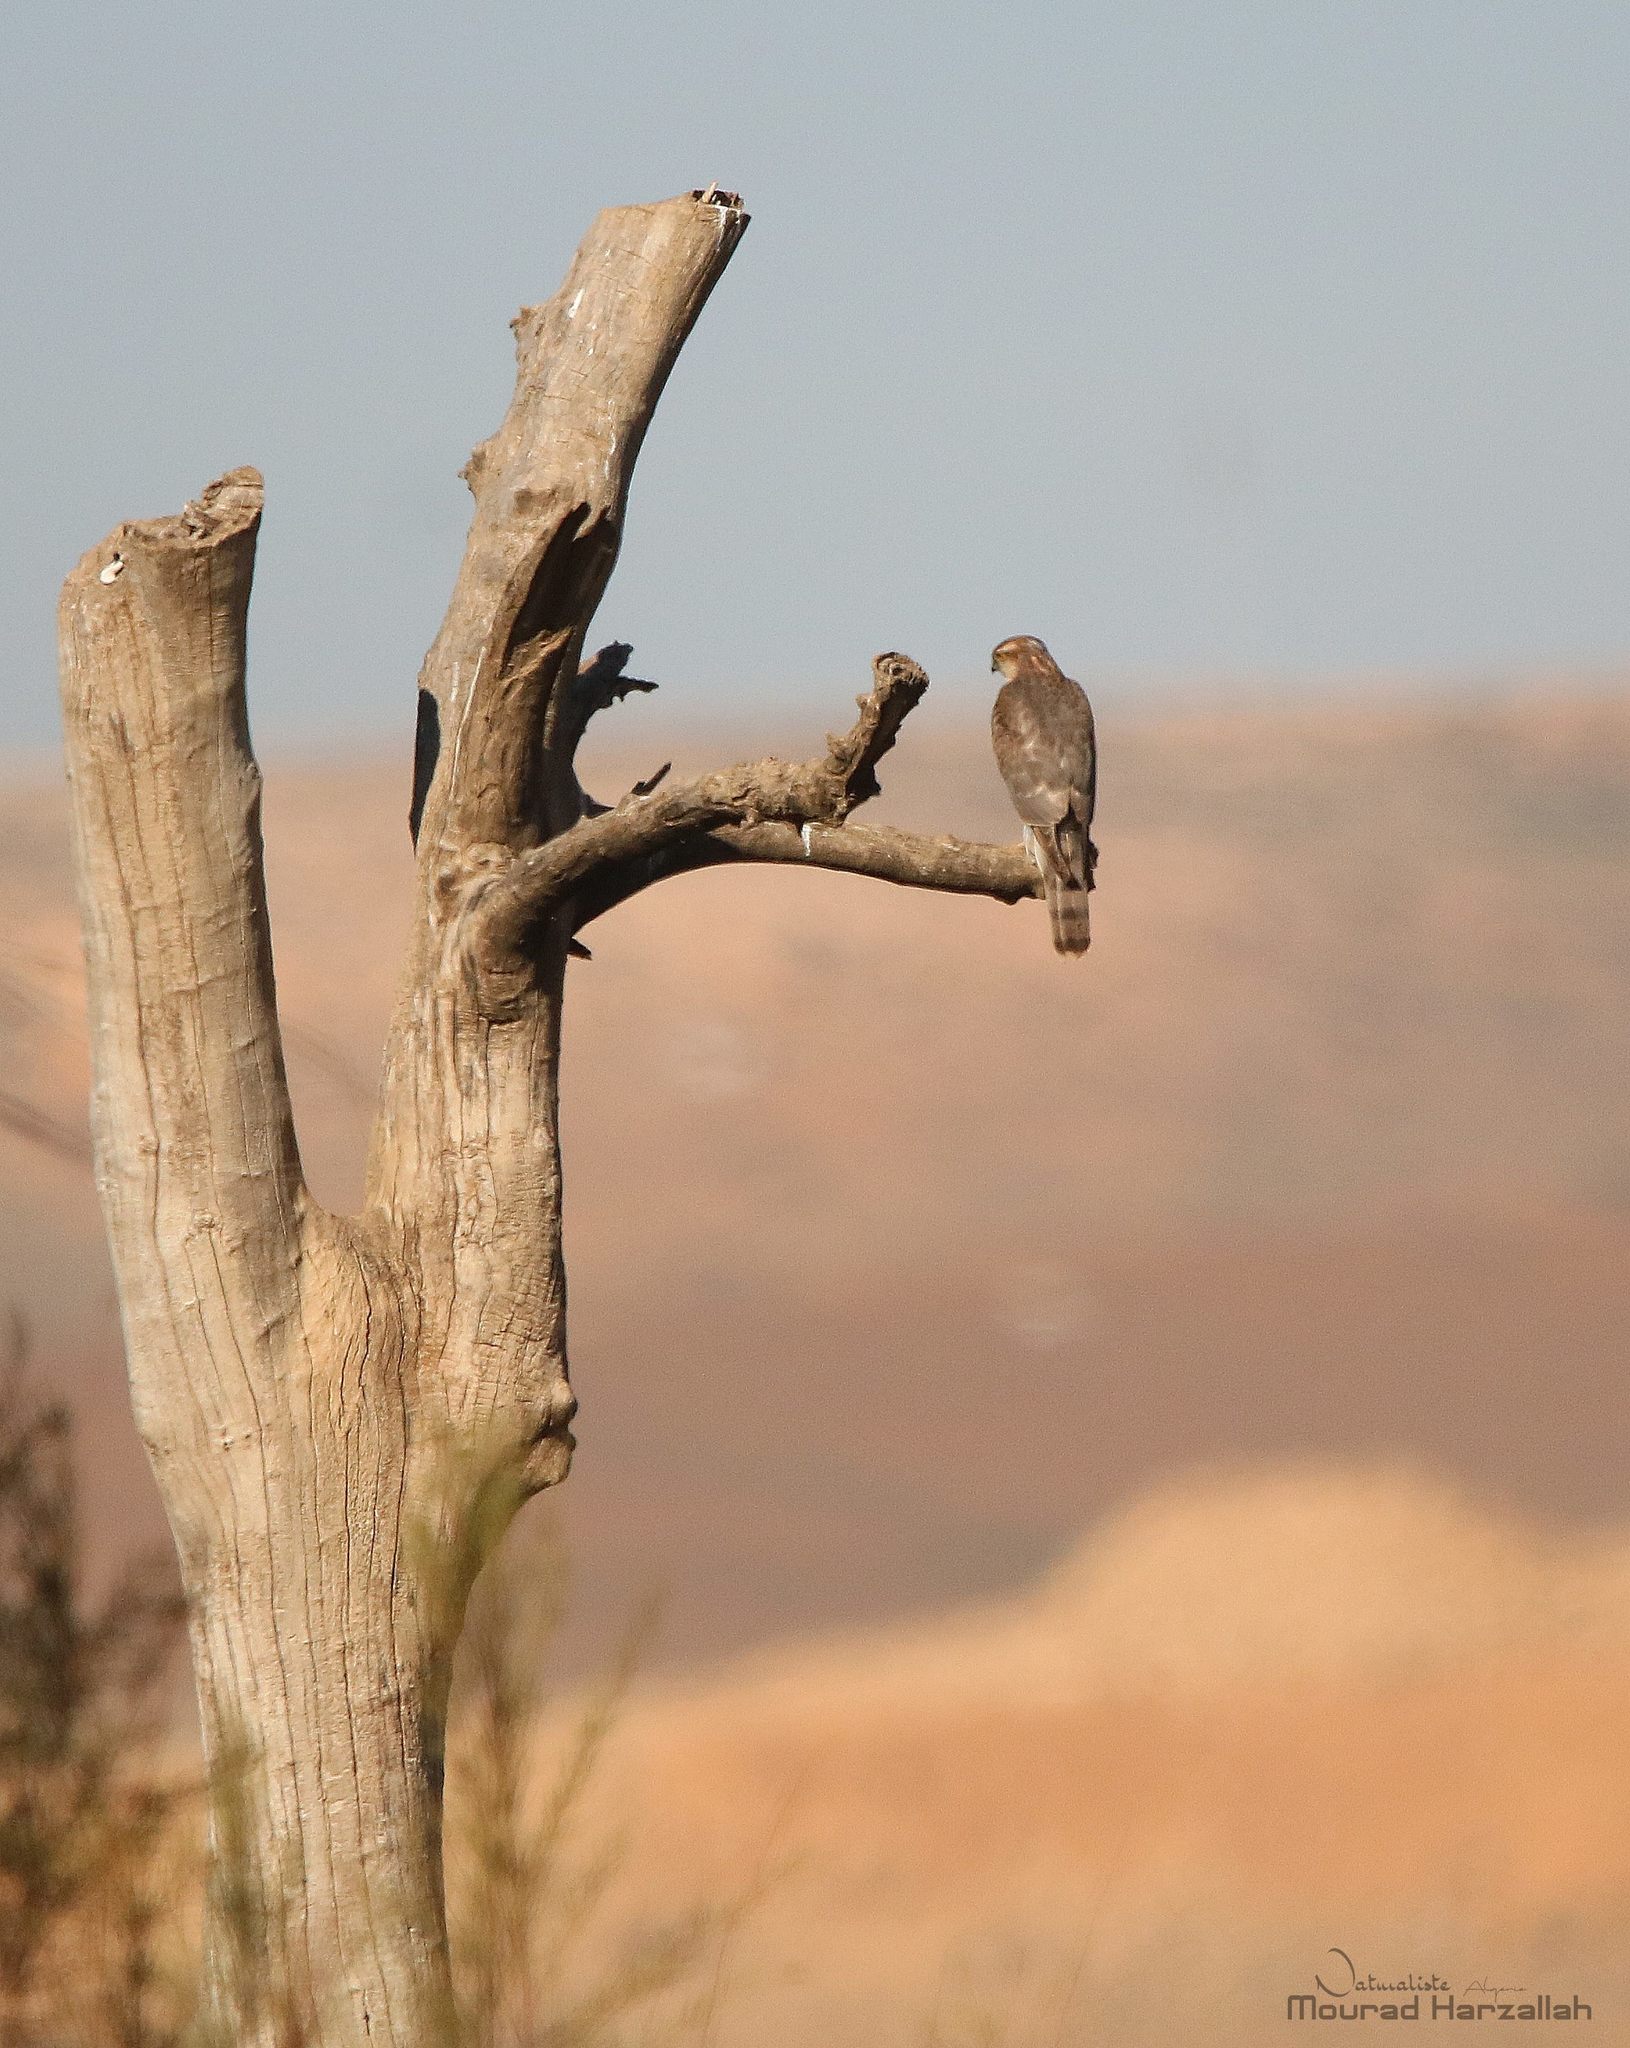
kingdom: Animalia
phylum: Chordata
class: Aves
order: Accipitriformes
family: Accipitridae
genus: Accipiter
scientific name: Accipiter nisus
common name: Eurasian sparrowhawk
